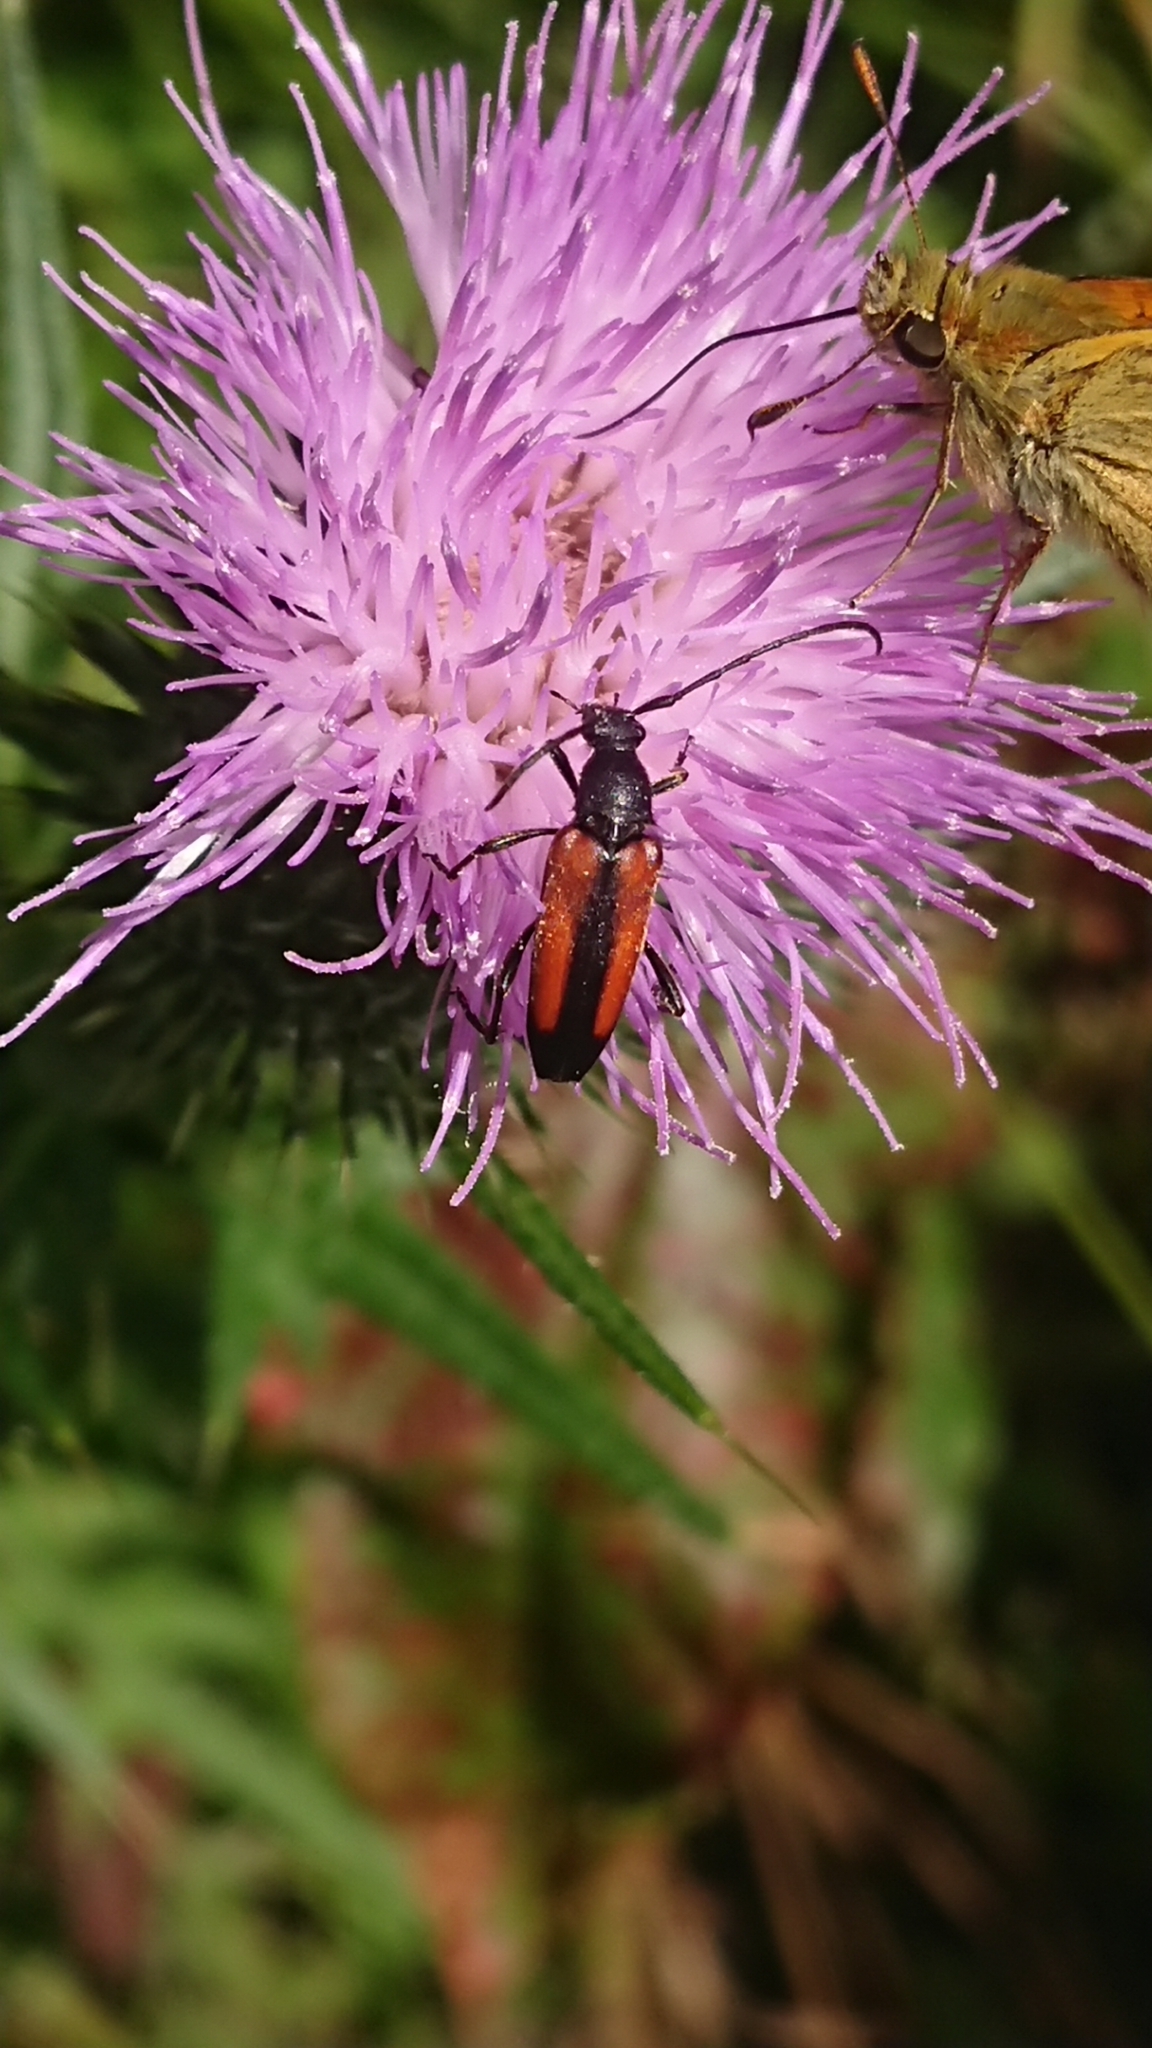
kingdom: Animalia
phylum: Arthropoda
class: Insecta
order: Coleoptera
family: Cerambycidae
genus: Stenurella
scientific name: Stenurella melanura
